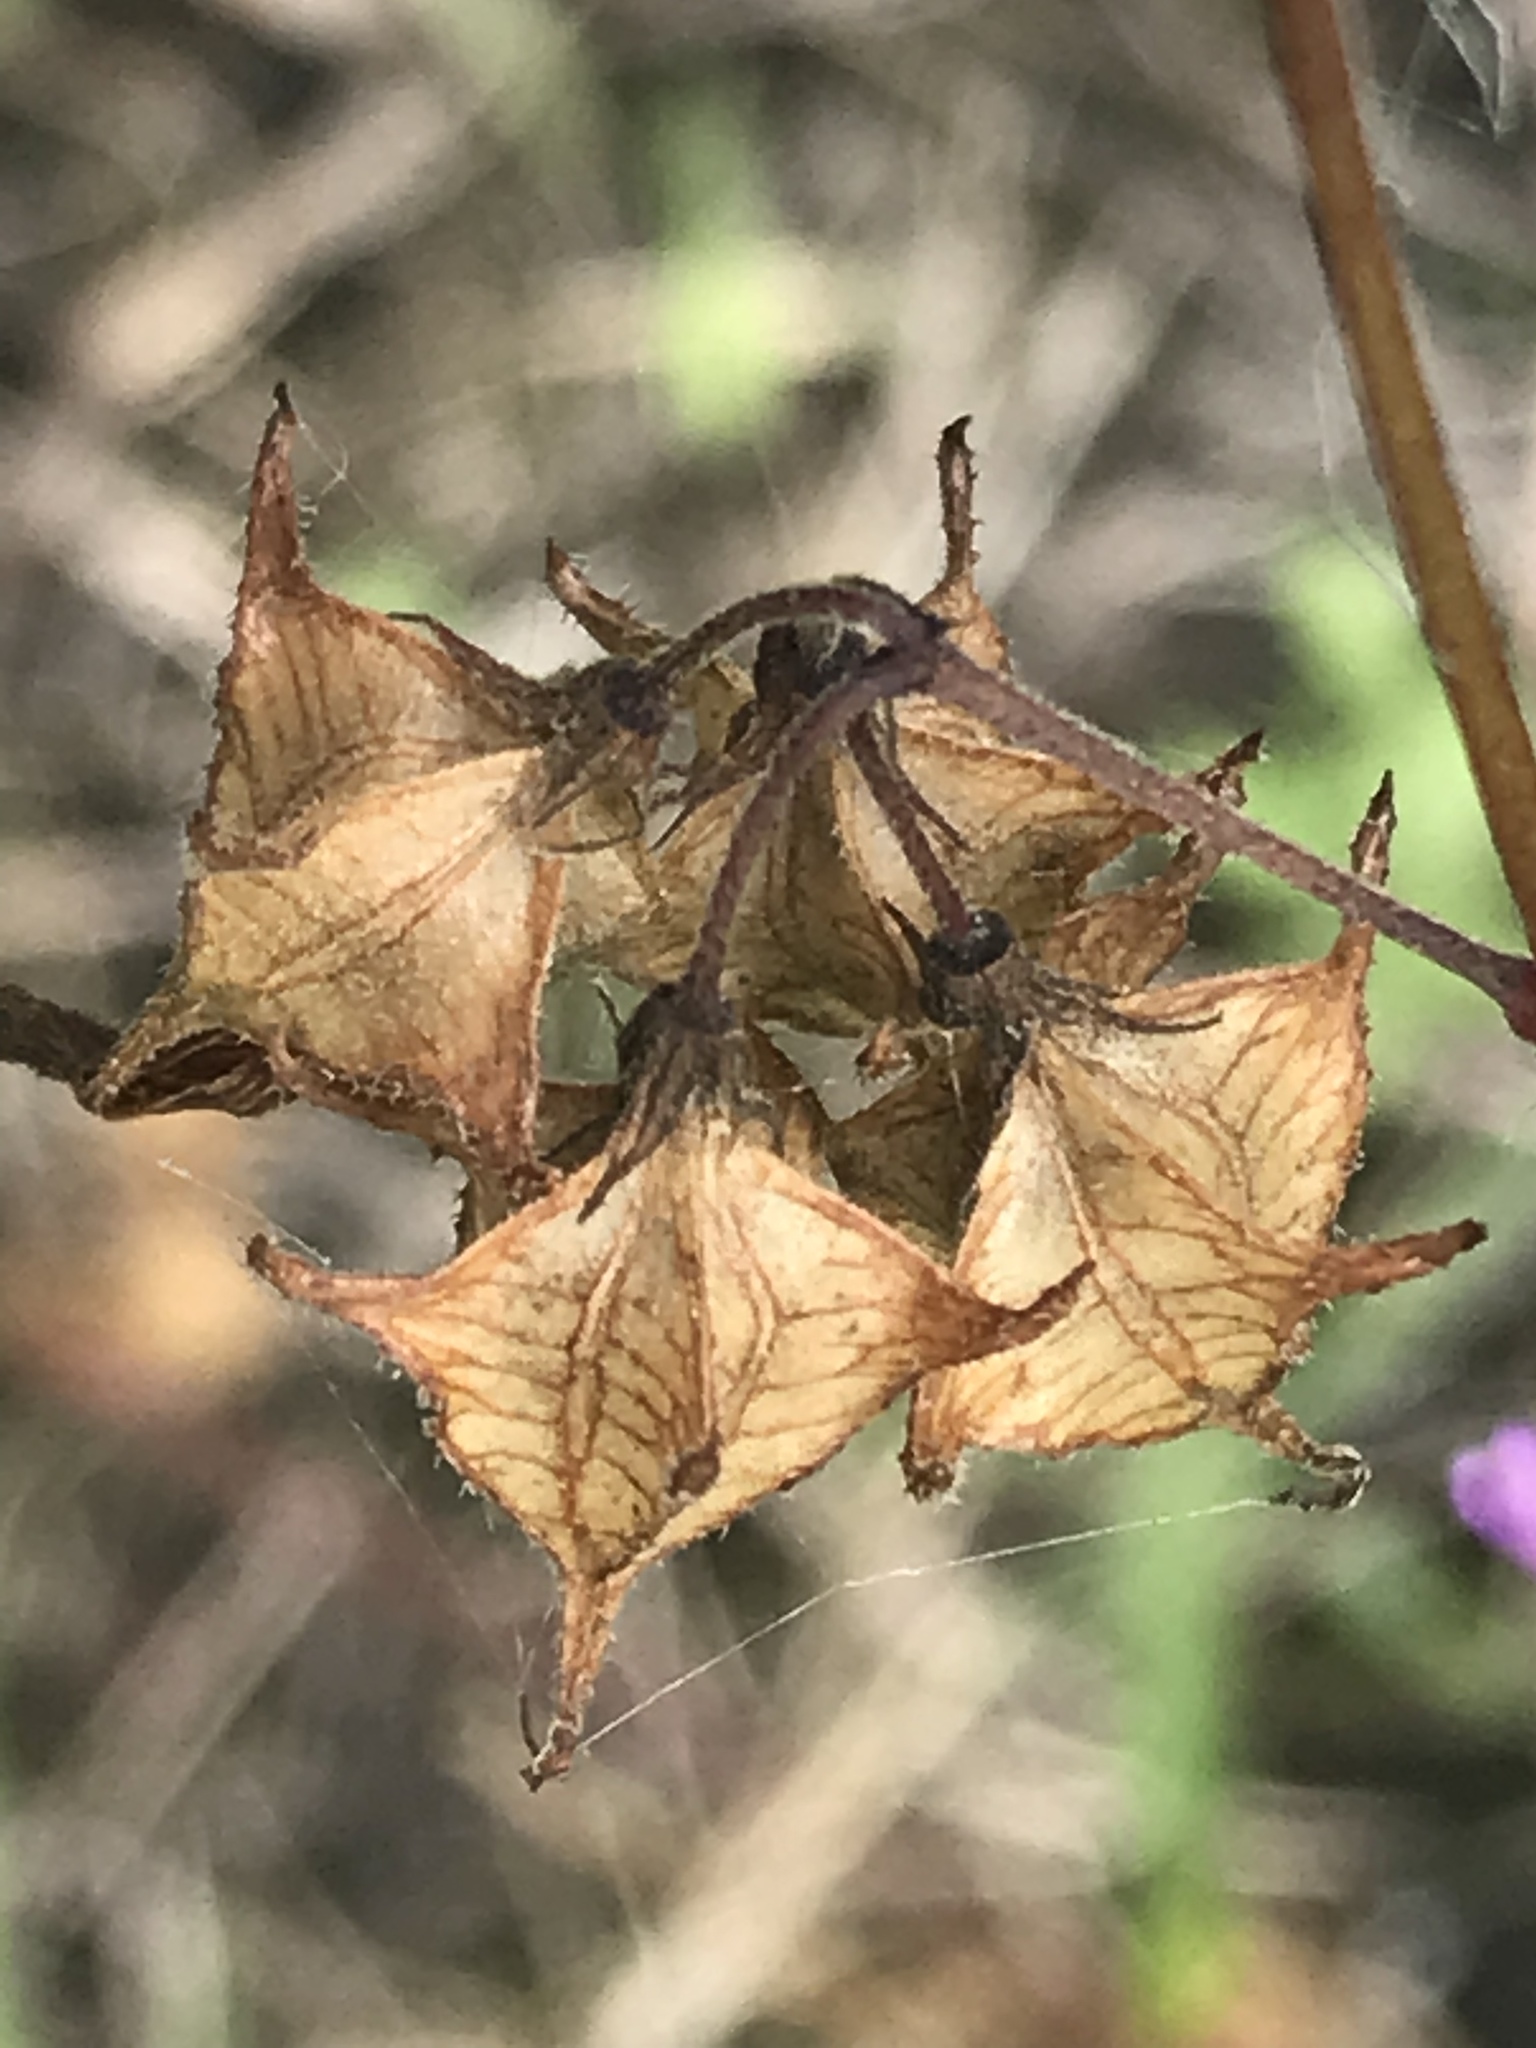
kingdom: Plantae
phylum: Tracheophyta
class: Magnoliopsida
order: Malvales
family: Malvaceae
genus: Melochia
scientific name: Melochia pyramidata
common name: Pyramidflower
